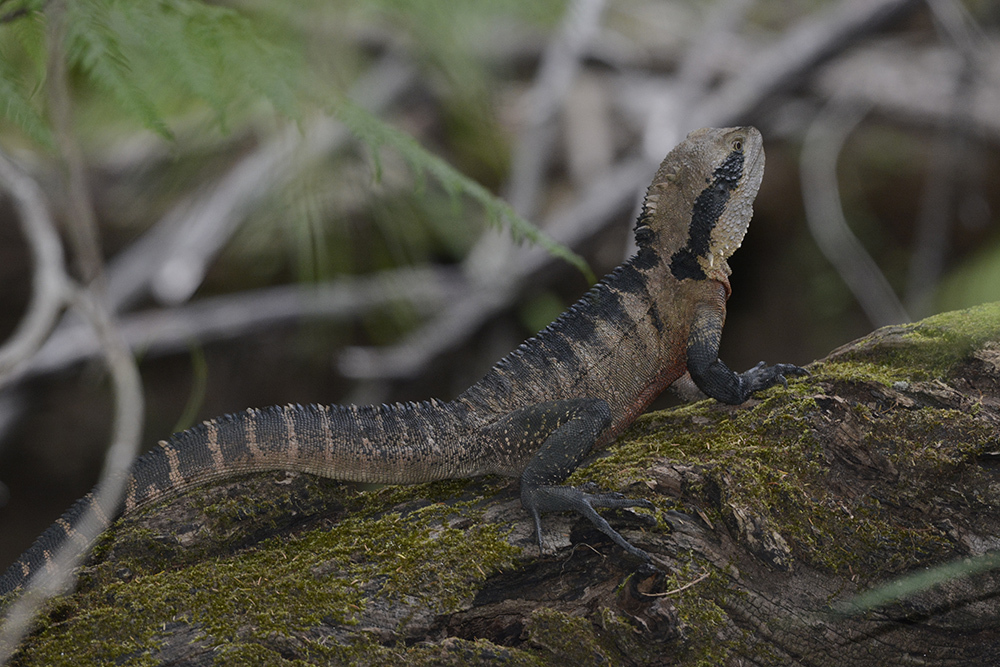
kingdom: Animalia
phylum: Chordata
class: Squamata
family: Agamidae
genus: Intellagama
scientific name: Intellagama lesueurii
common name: Eastern water dragon
